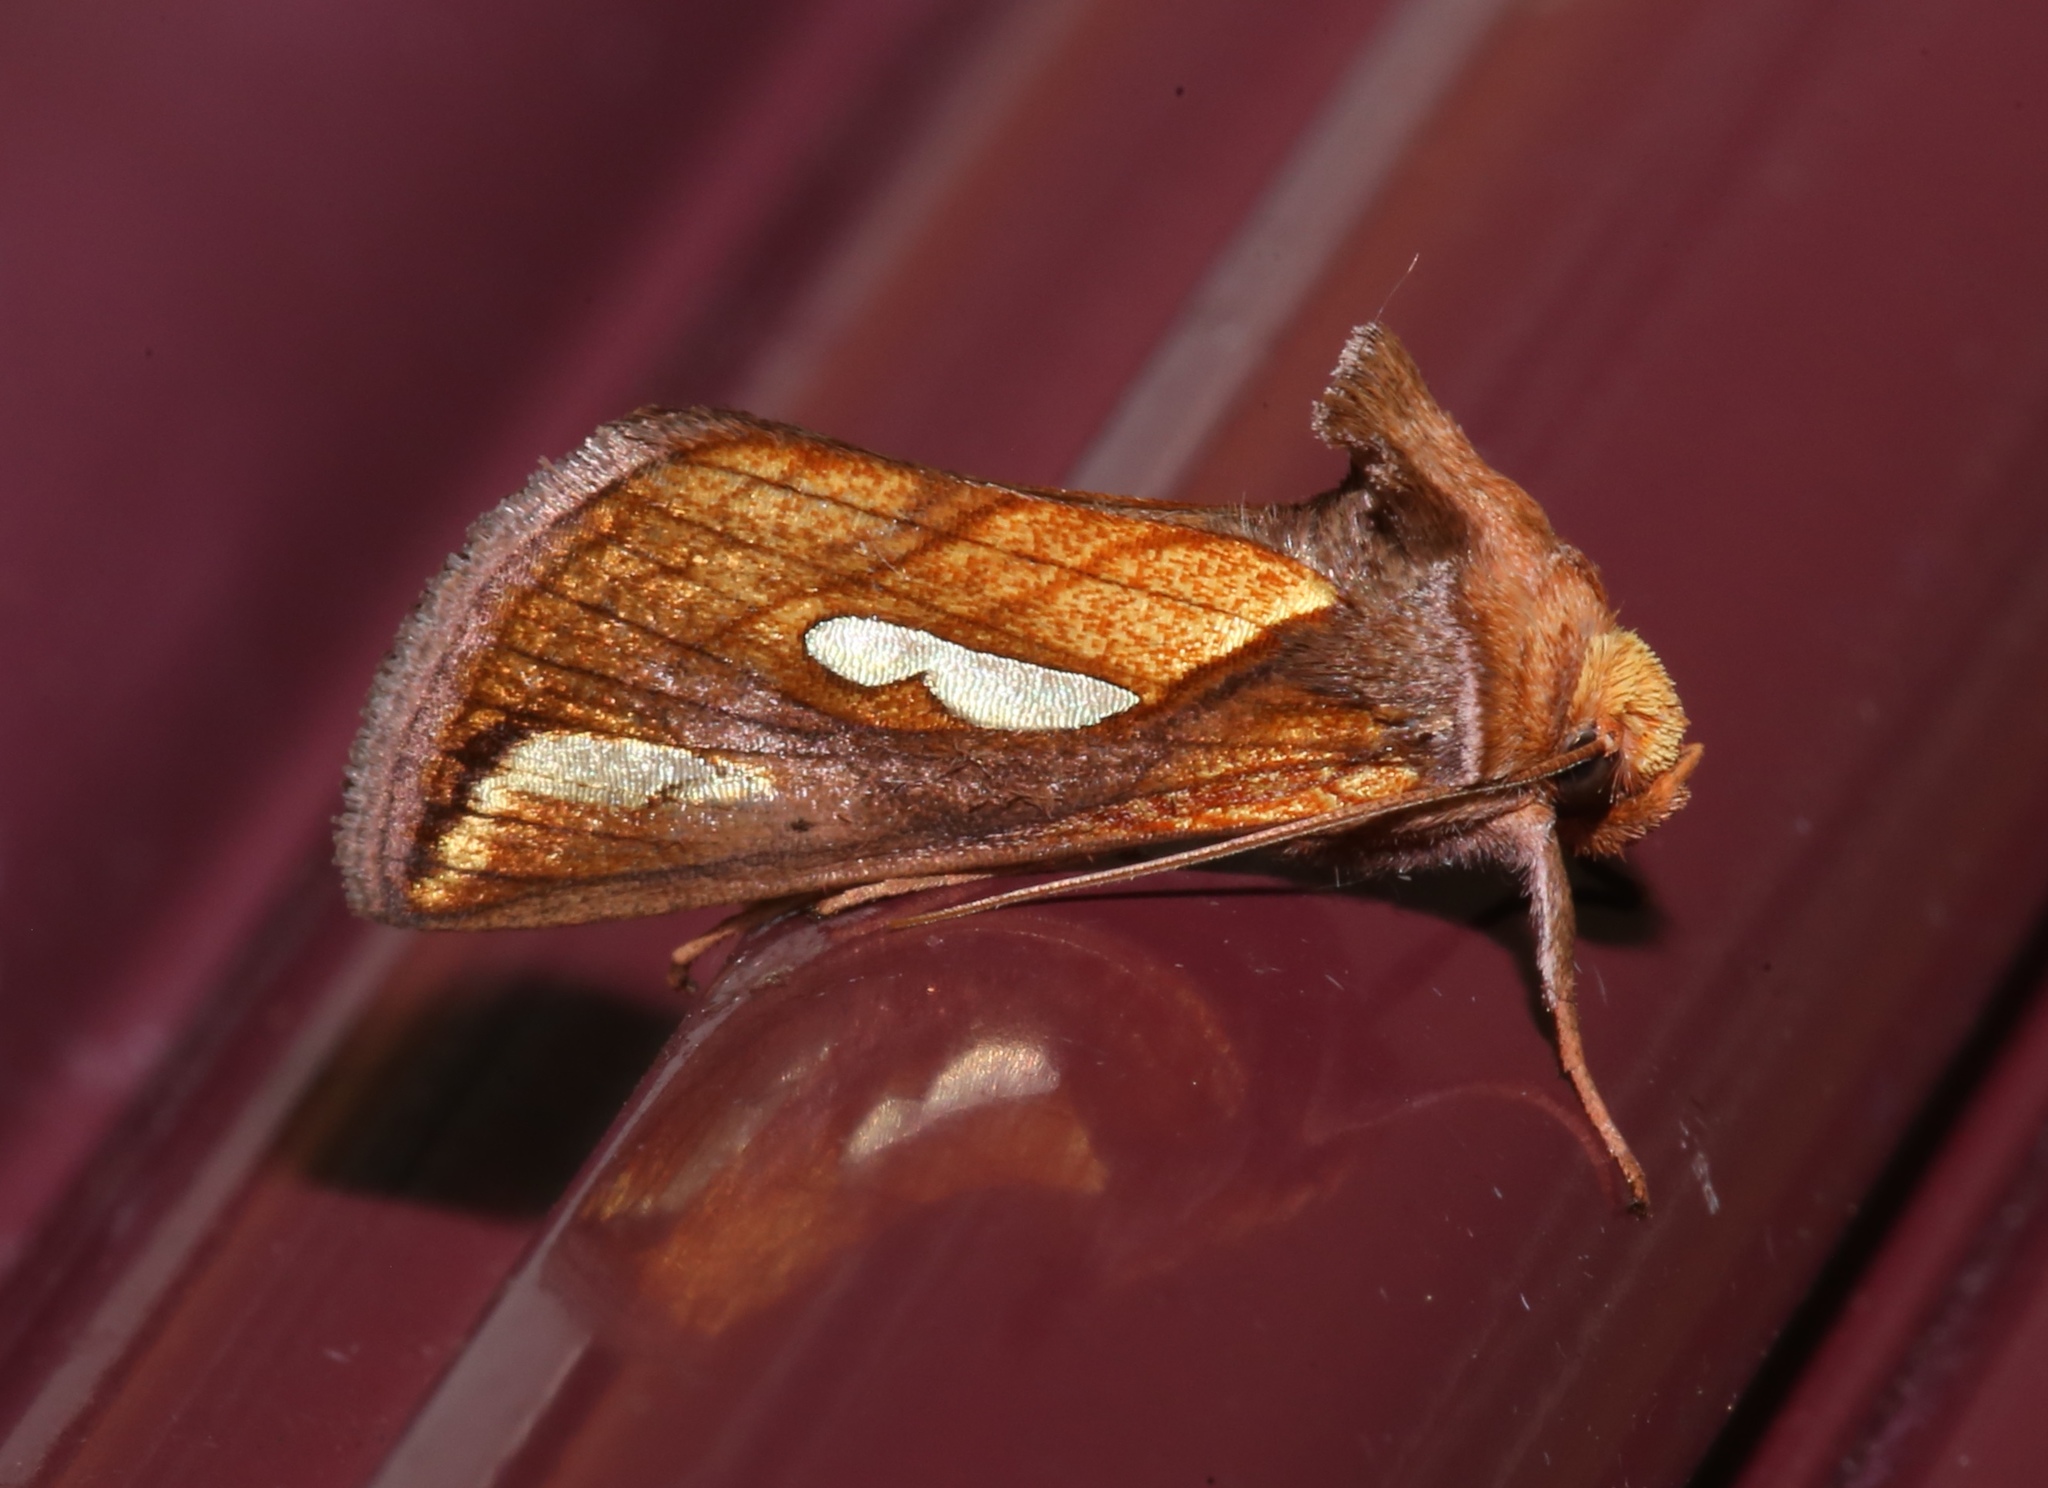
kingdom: Animalia
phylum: Arthropoda
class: Insecta
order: Lepidoptera
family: Noctuidae
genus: Plusia
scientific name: Plusia contexta
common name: Connected looper moth
